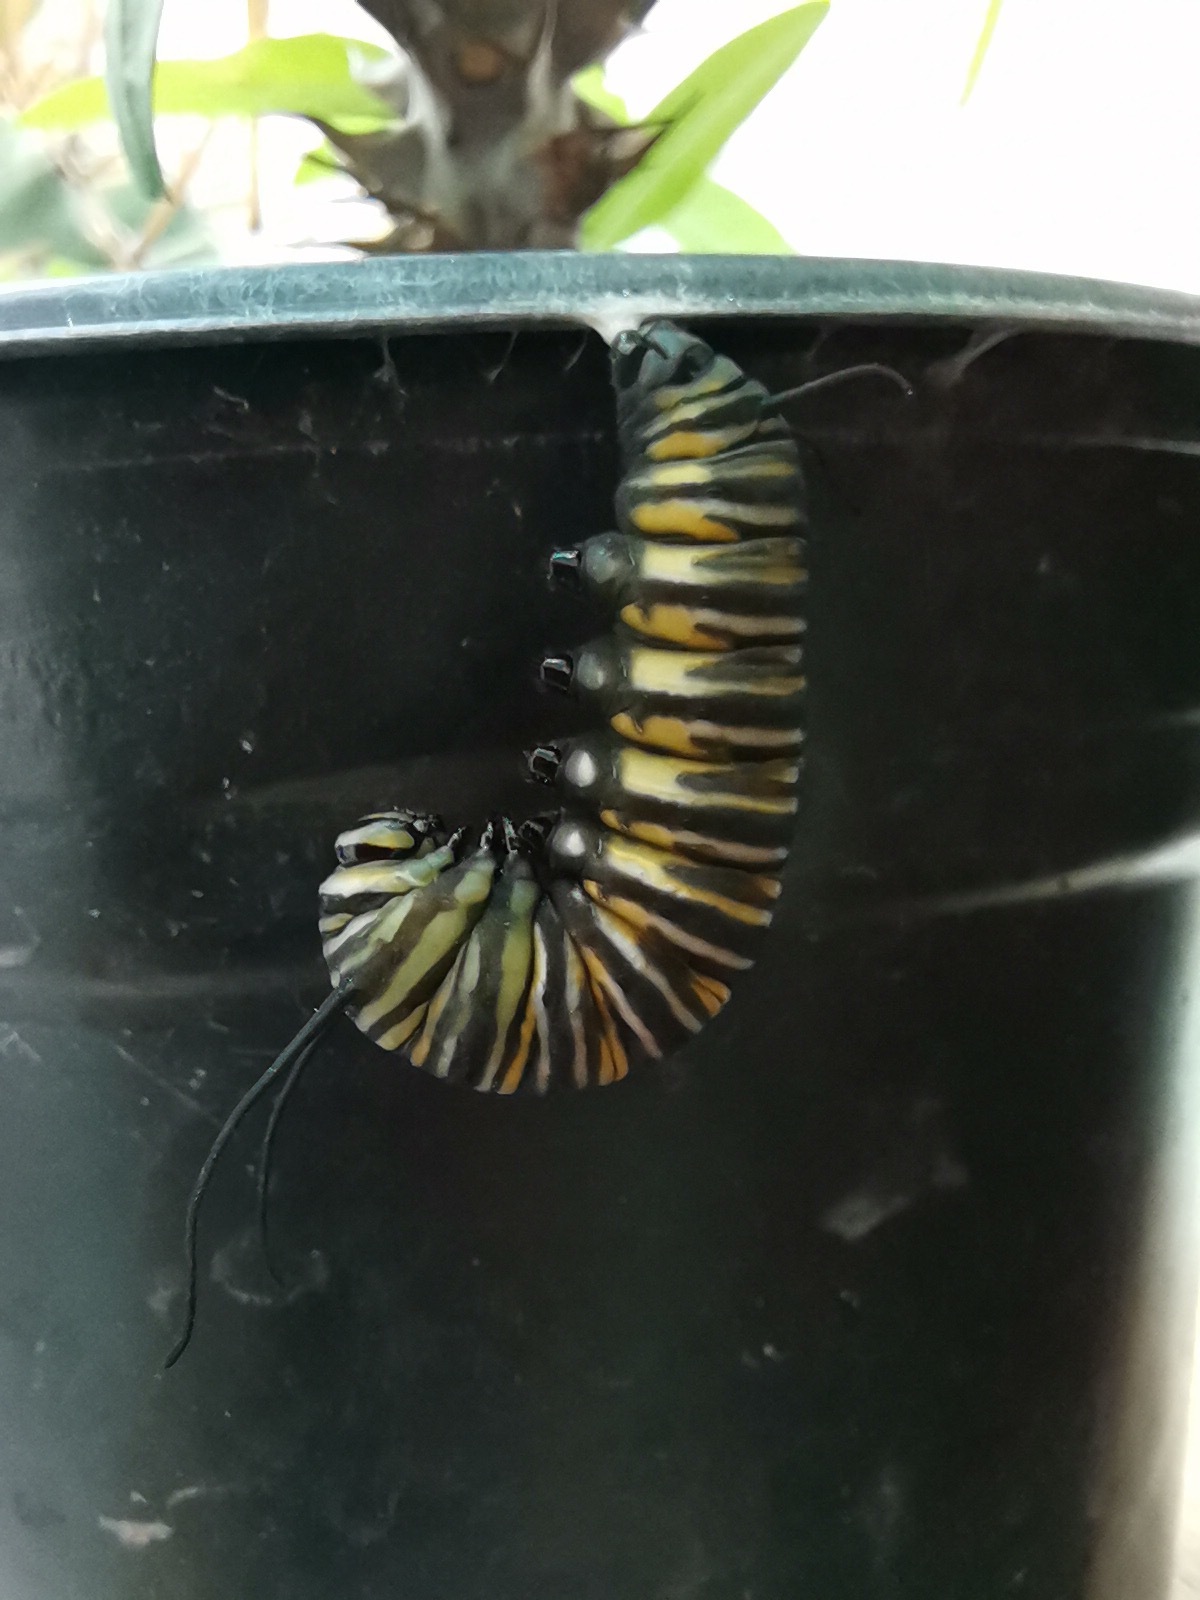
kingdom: Animalia
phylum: Arthropoda
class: Insecta
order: Lepidoptera
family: Nymphalidae
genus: Danaus
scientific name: Danaus plexippus
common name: Monarch
